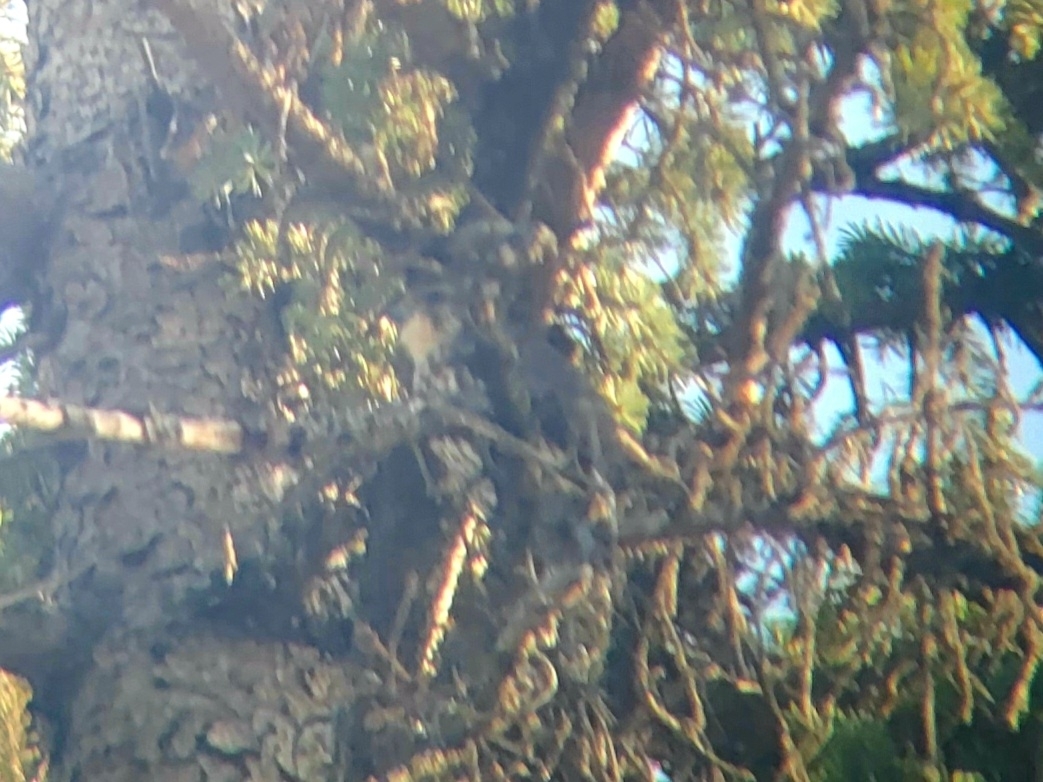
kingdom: Animalia
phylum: Chordata
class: Aves
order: Falconiformes
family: Falconidae
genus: Falco
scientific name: Falco columbarius
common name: Merlin
